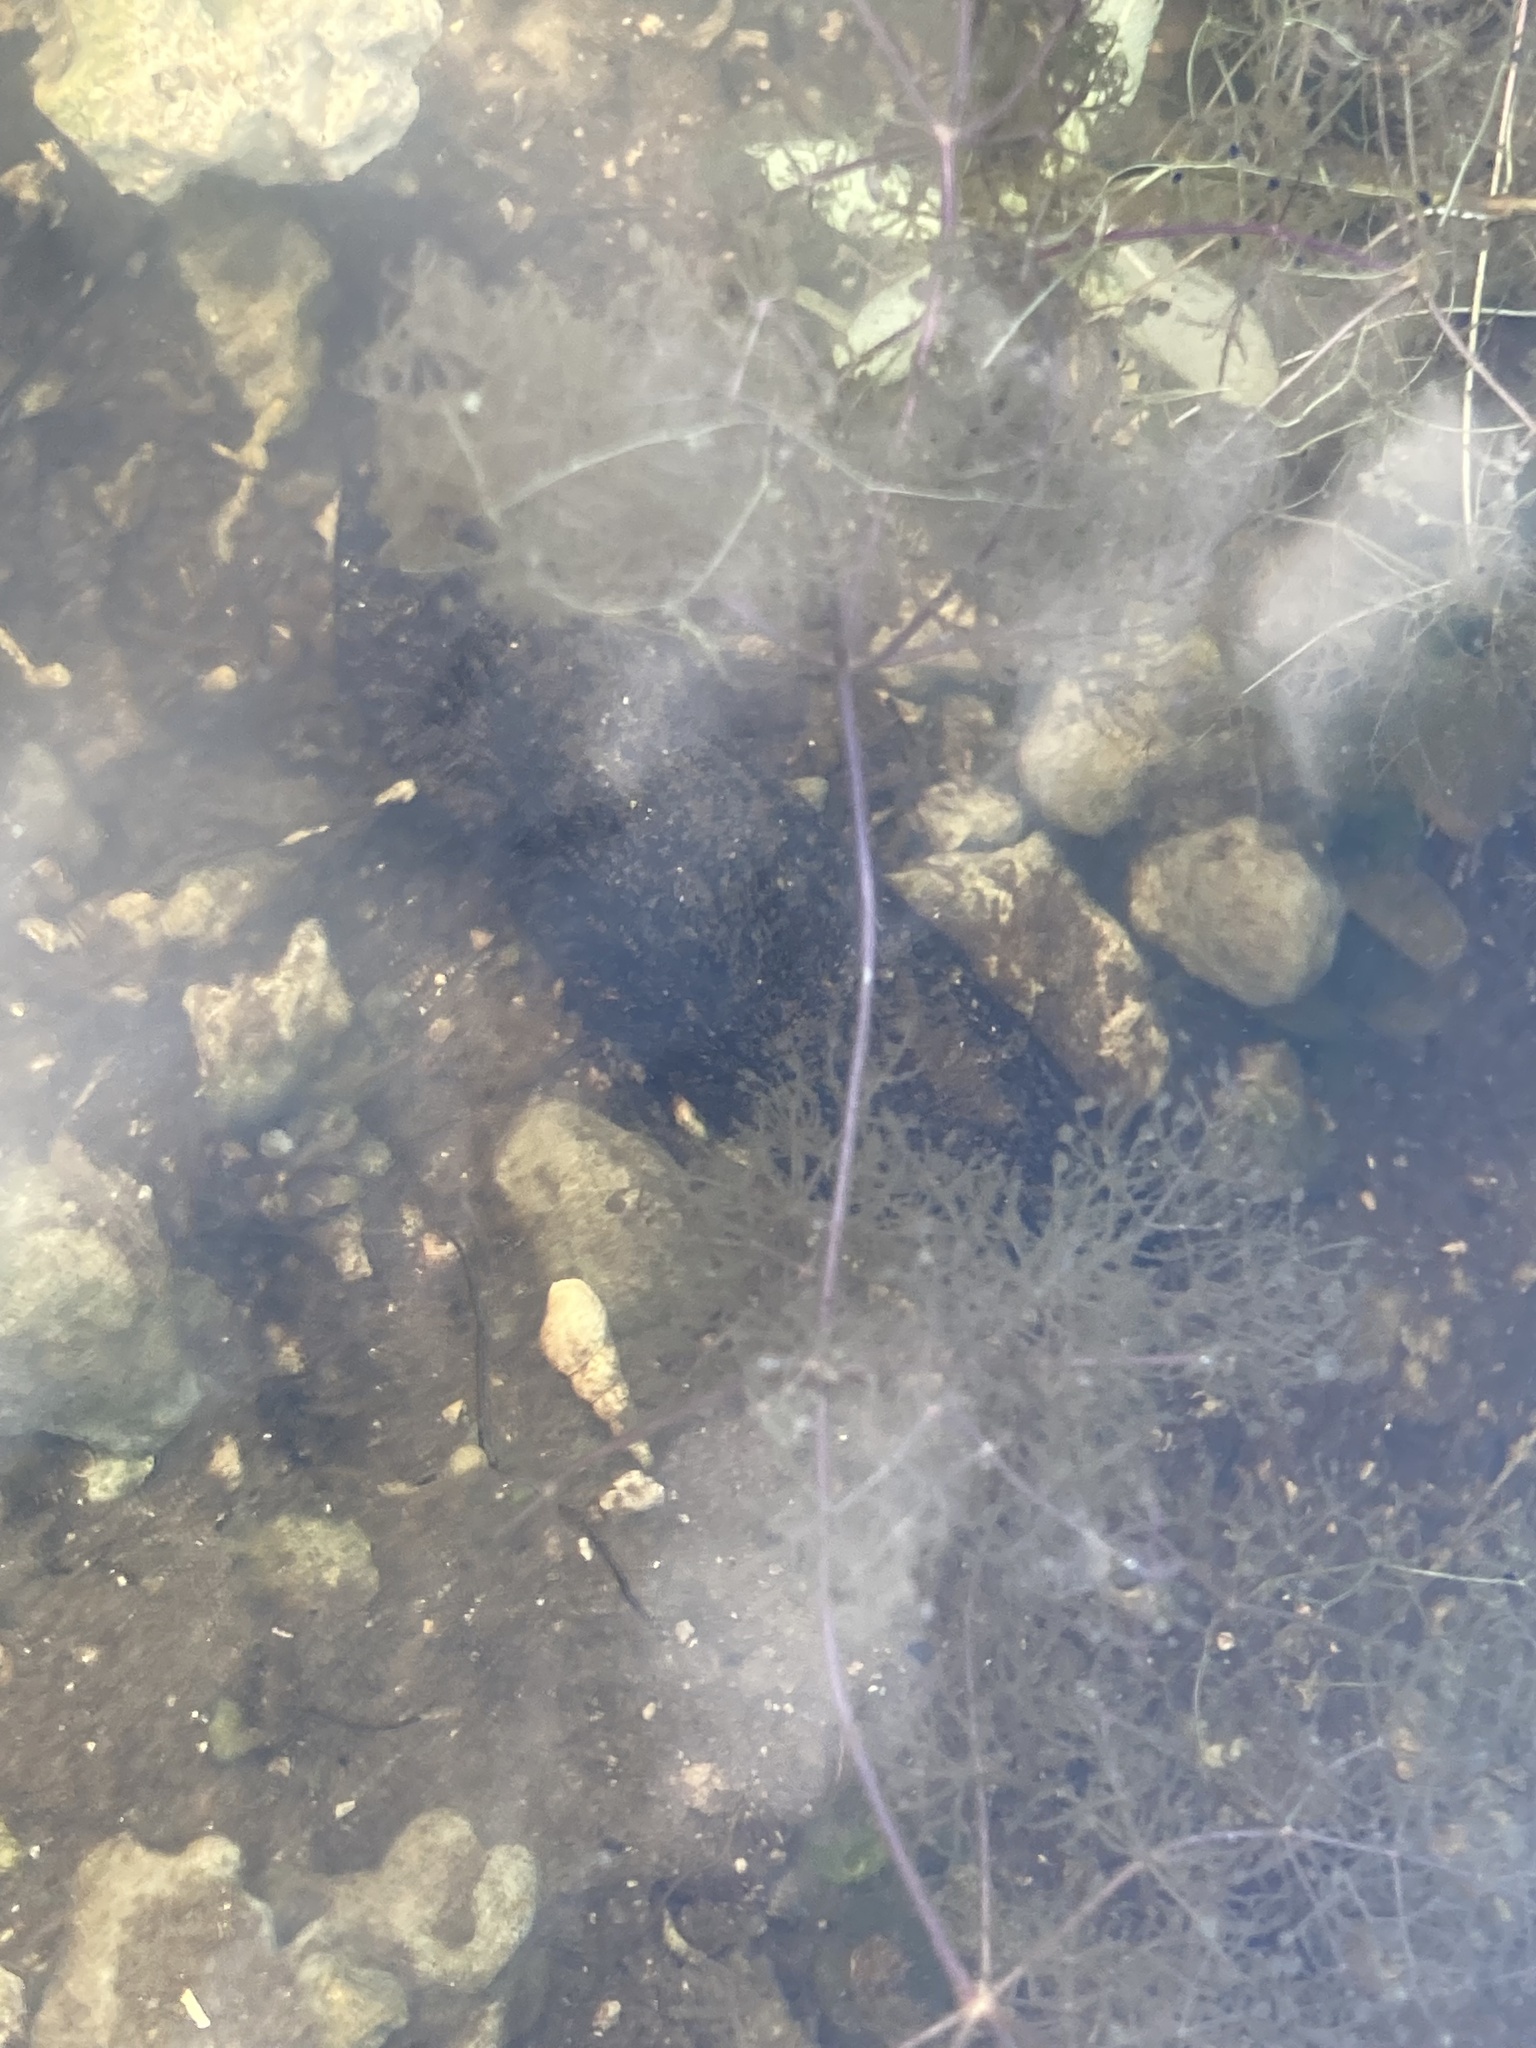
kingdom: Plantae
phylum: Tracheophyta
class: Magnoliopsida
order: Lamiales
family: Lentibulariaceae
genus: Utricularia
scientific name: Utricularia purpurea
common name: Eastern purple bladderwort
